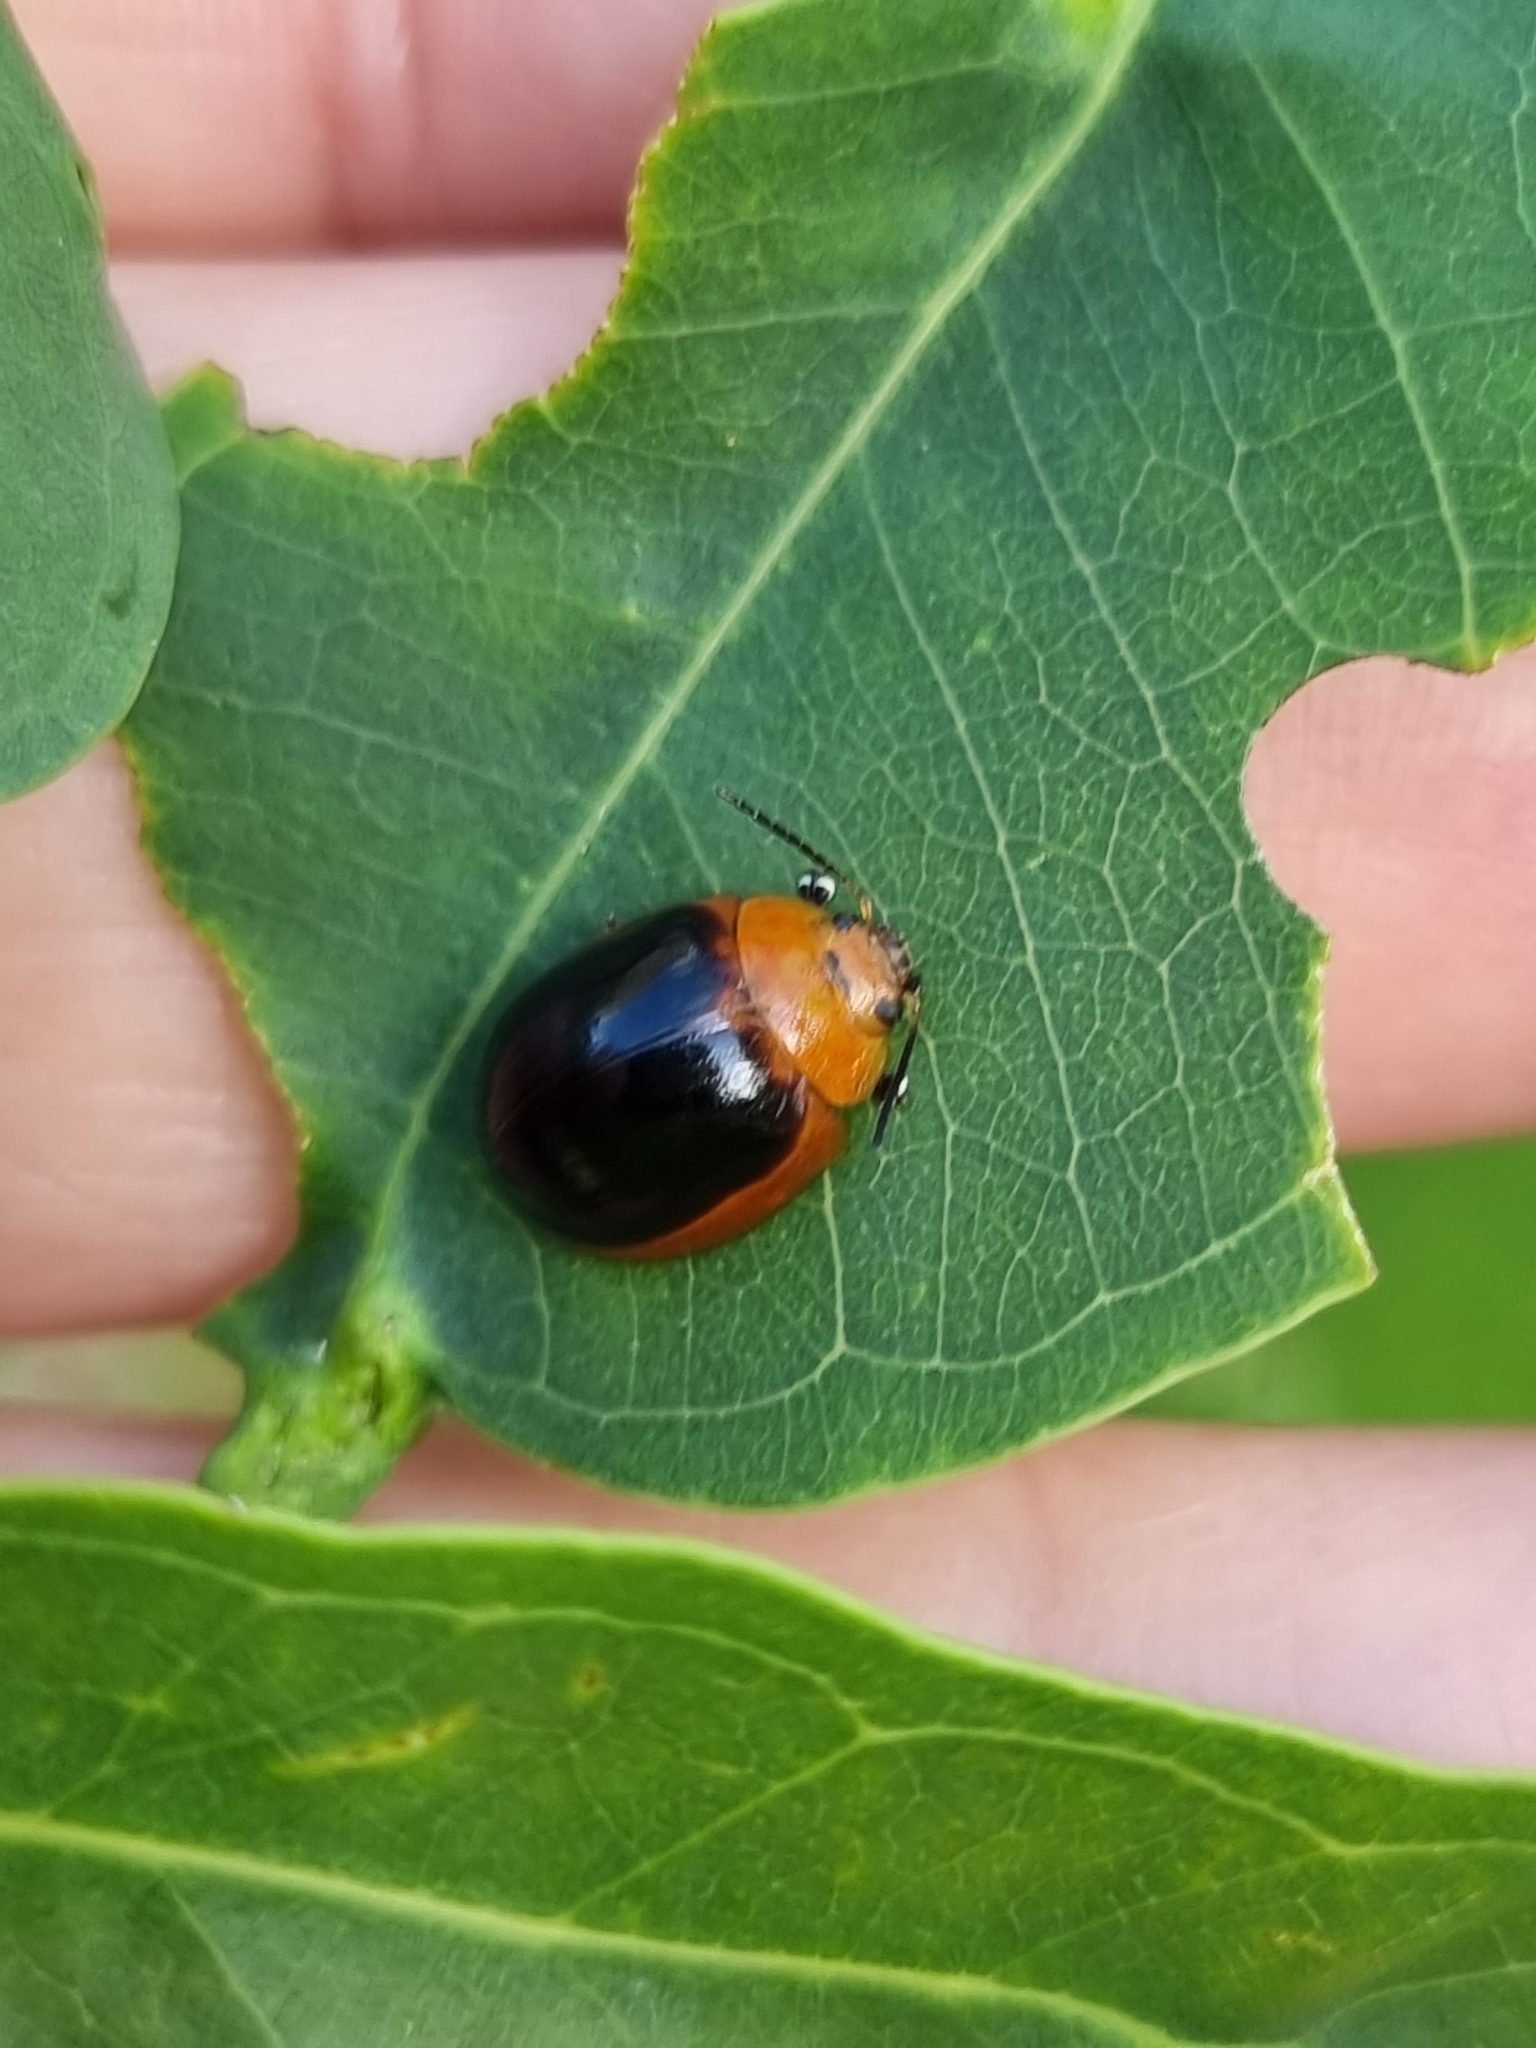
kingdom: Animalia
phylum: Arthropoda
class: Insecta
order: Coleoptera
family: Chrysomelidae
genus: Paropsisterna
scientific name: Paropsisterna cloelia
